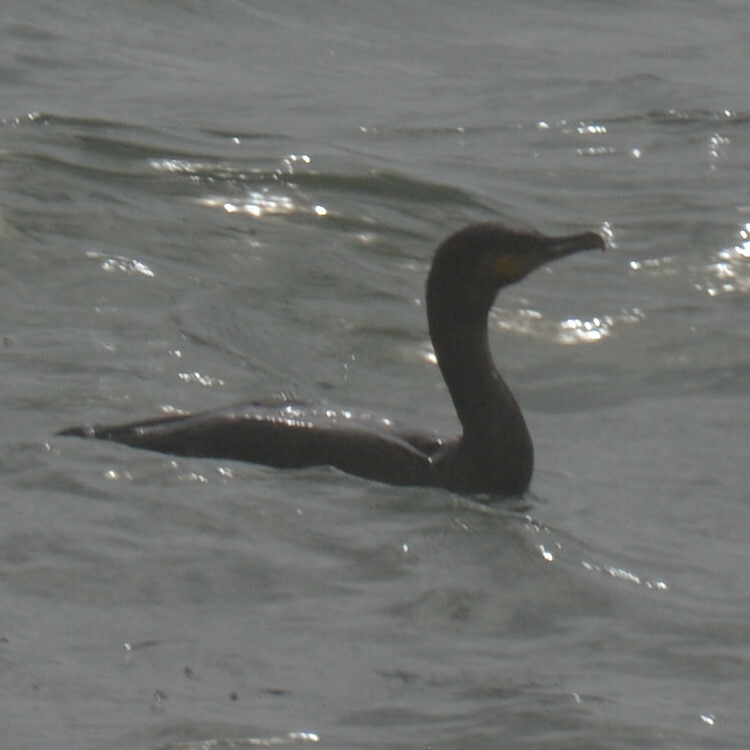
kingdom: Animalia
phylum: Chordata
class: Aves
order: Suliformes
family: Phalacrocoracidae
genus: Phalacrocorax
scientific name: Phalacrocorax carbo
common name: Great cormorant
